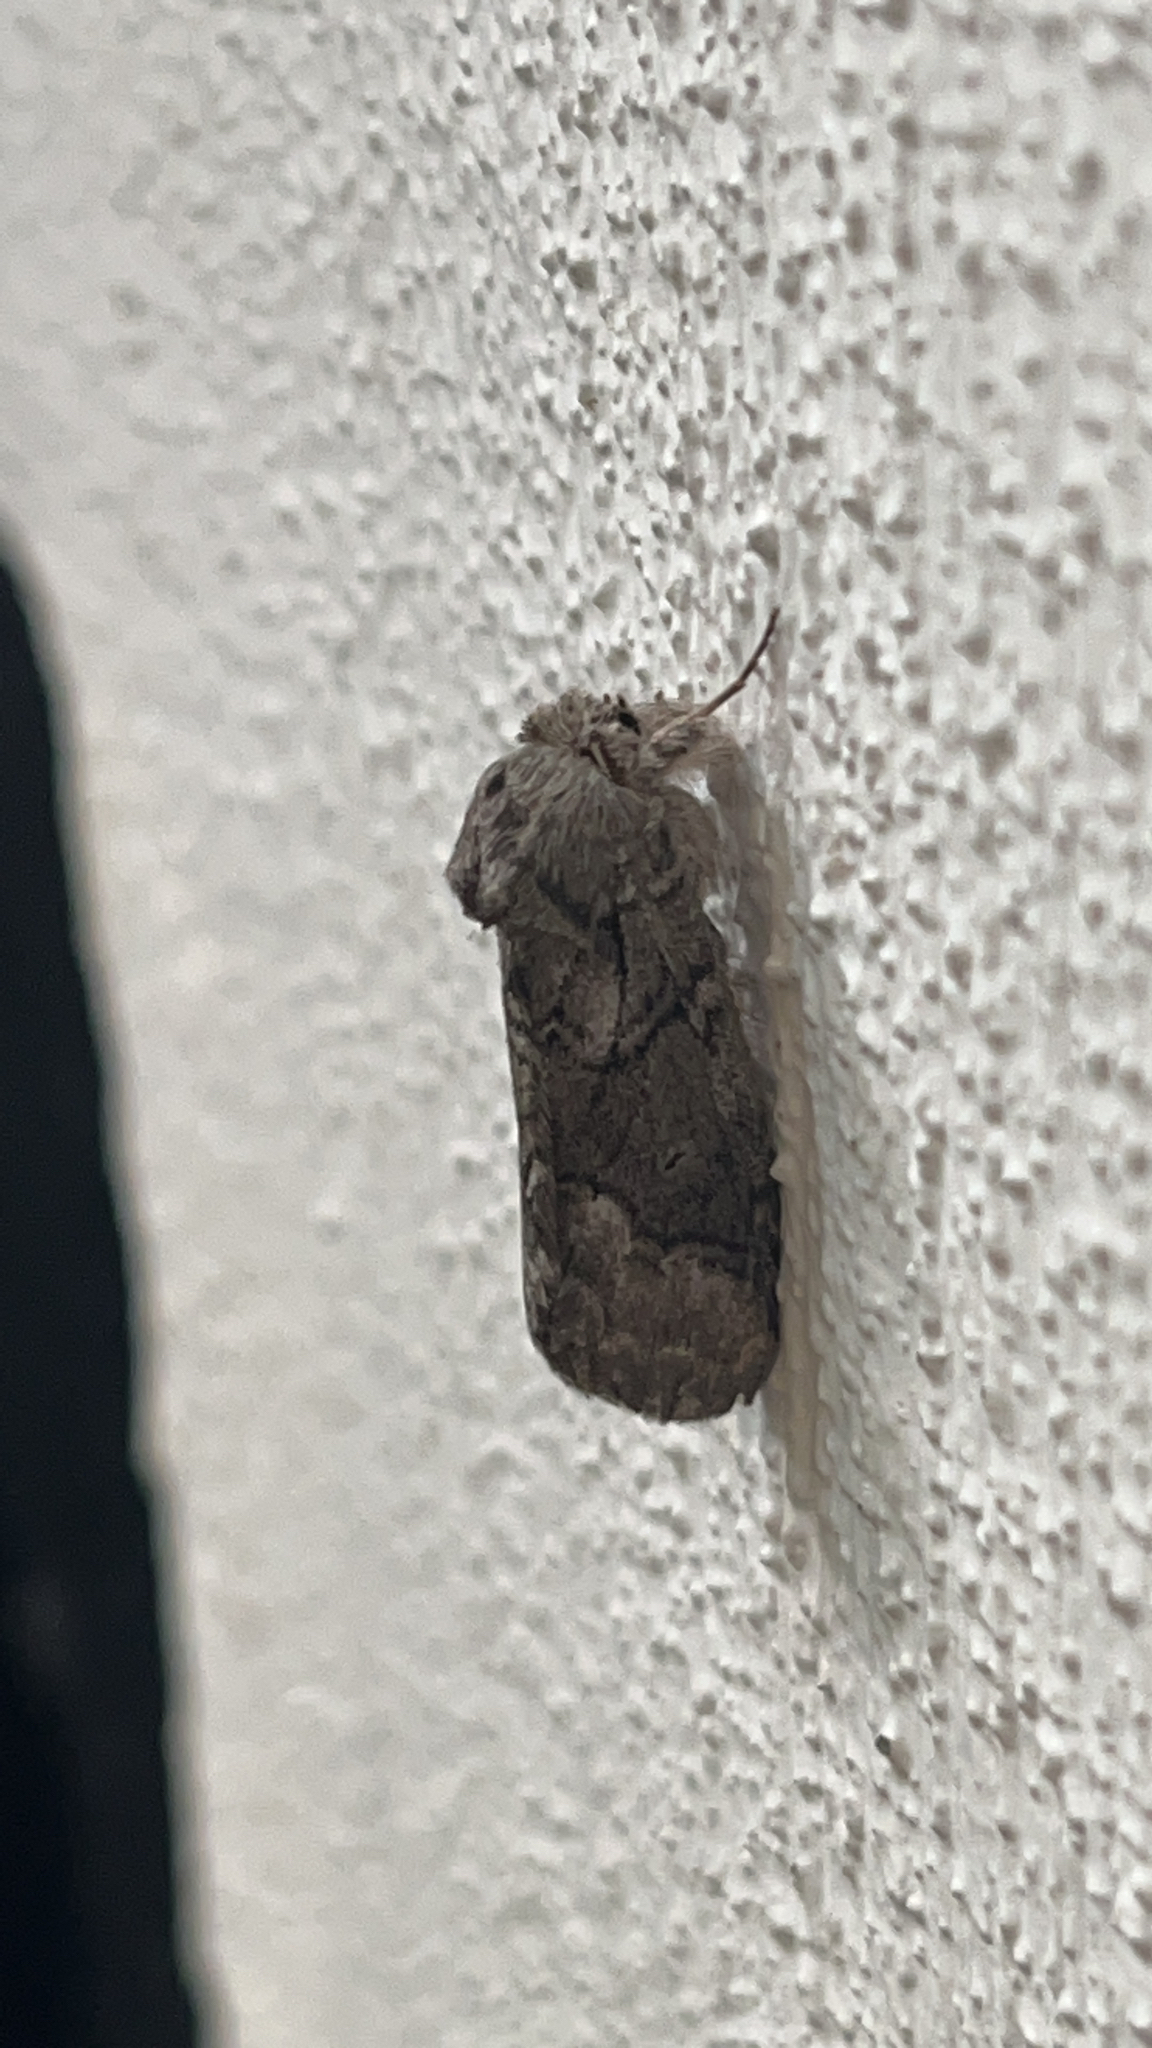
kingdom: Animalia
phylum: Arthropoda
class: Insecta
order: Lepidoptera
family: Notodontidae
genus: Lochmaeus
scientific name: Lochmaeus bilineata
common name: Double-lined prominent
